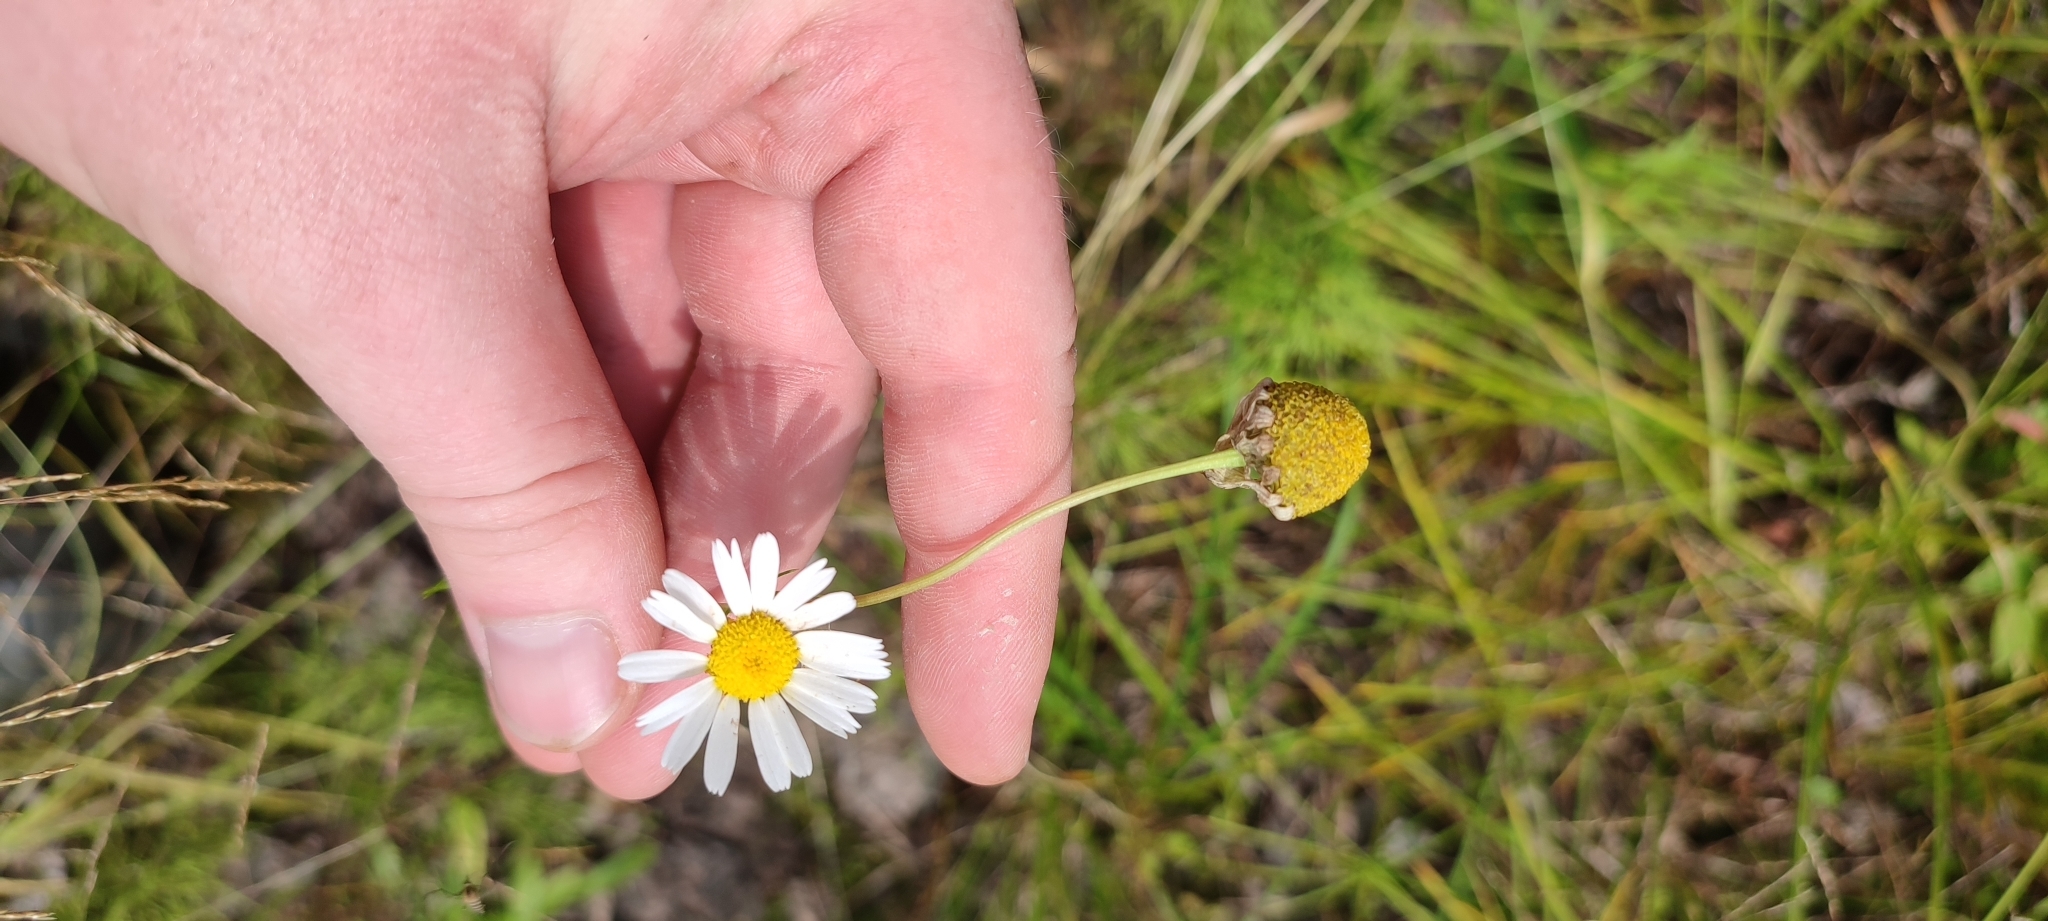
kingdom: Plantae
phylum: Tracheophyta
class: Magnoliopsida
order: Asterales
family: Asteraceae
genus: Tripleurospermum
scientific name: Tripleurospermum inodorum
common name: Scentless mayweed
